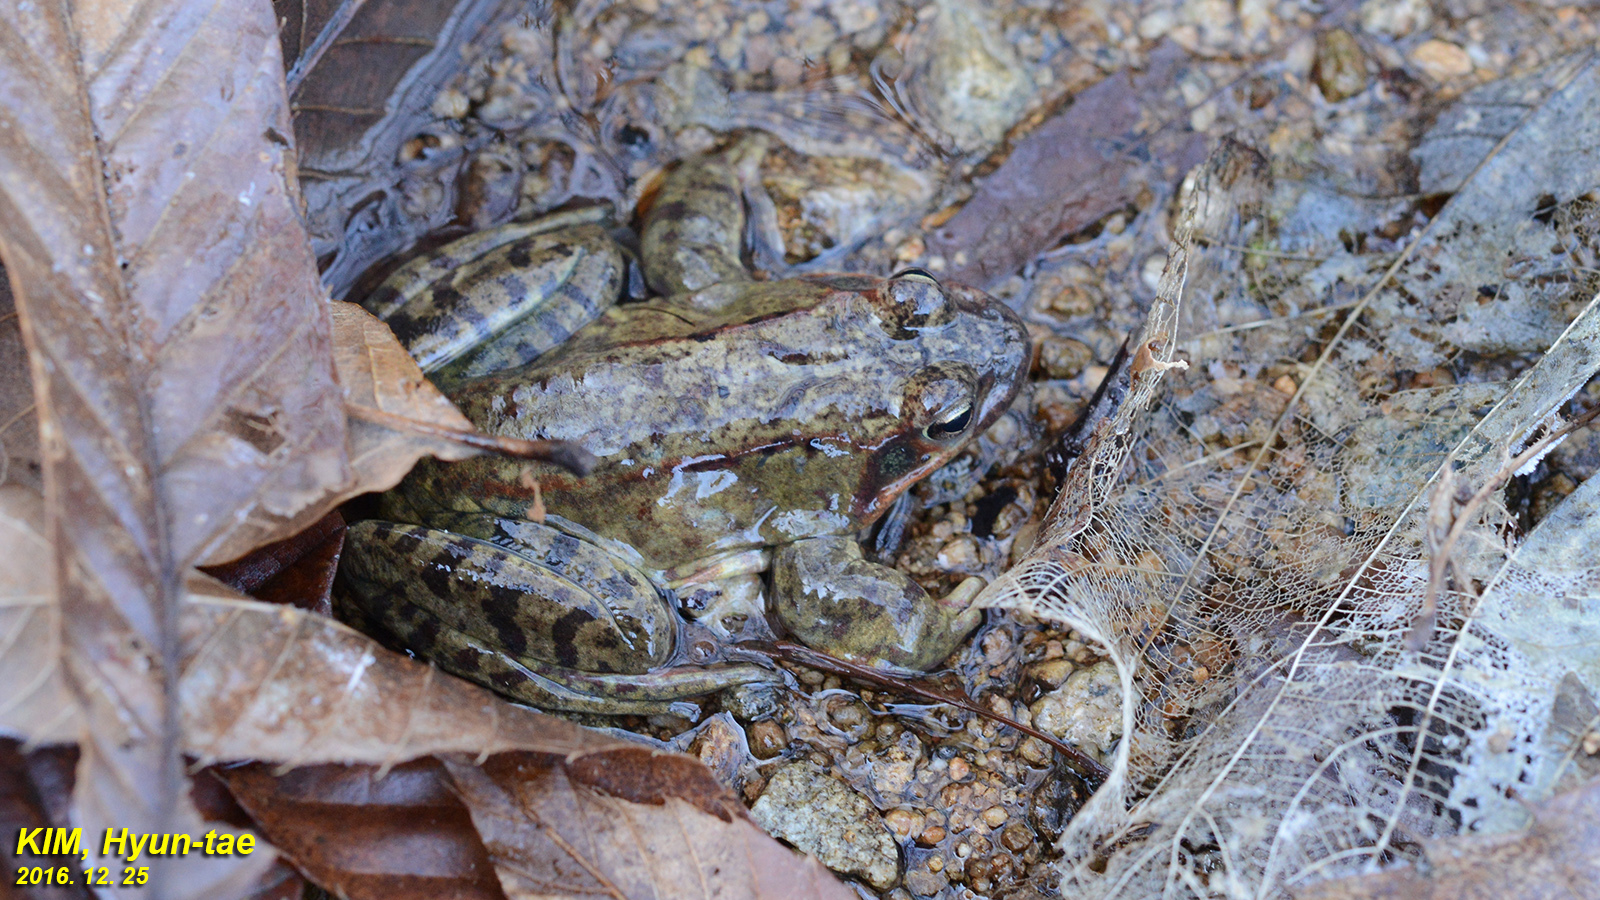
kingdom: Animalia
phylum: Chordata
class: Amphibia
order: Anura
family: Ranidae
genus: Rana
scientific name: Rana dybowskii
